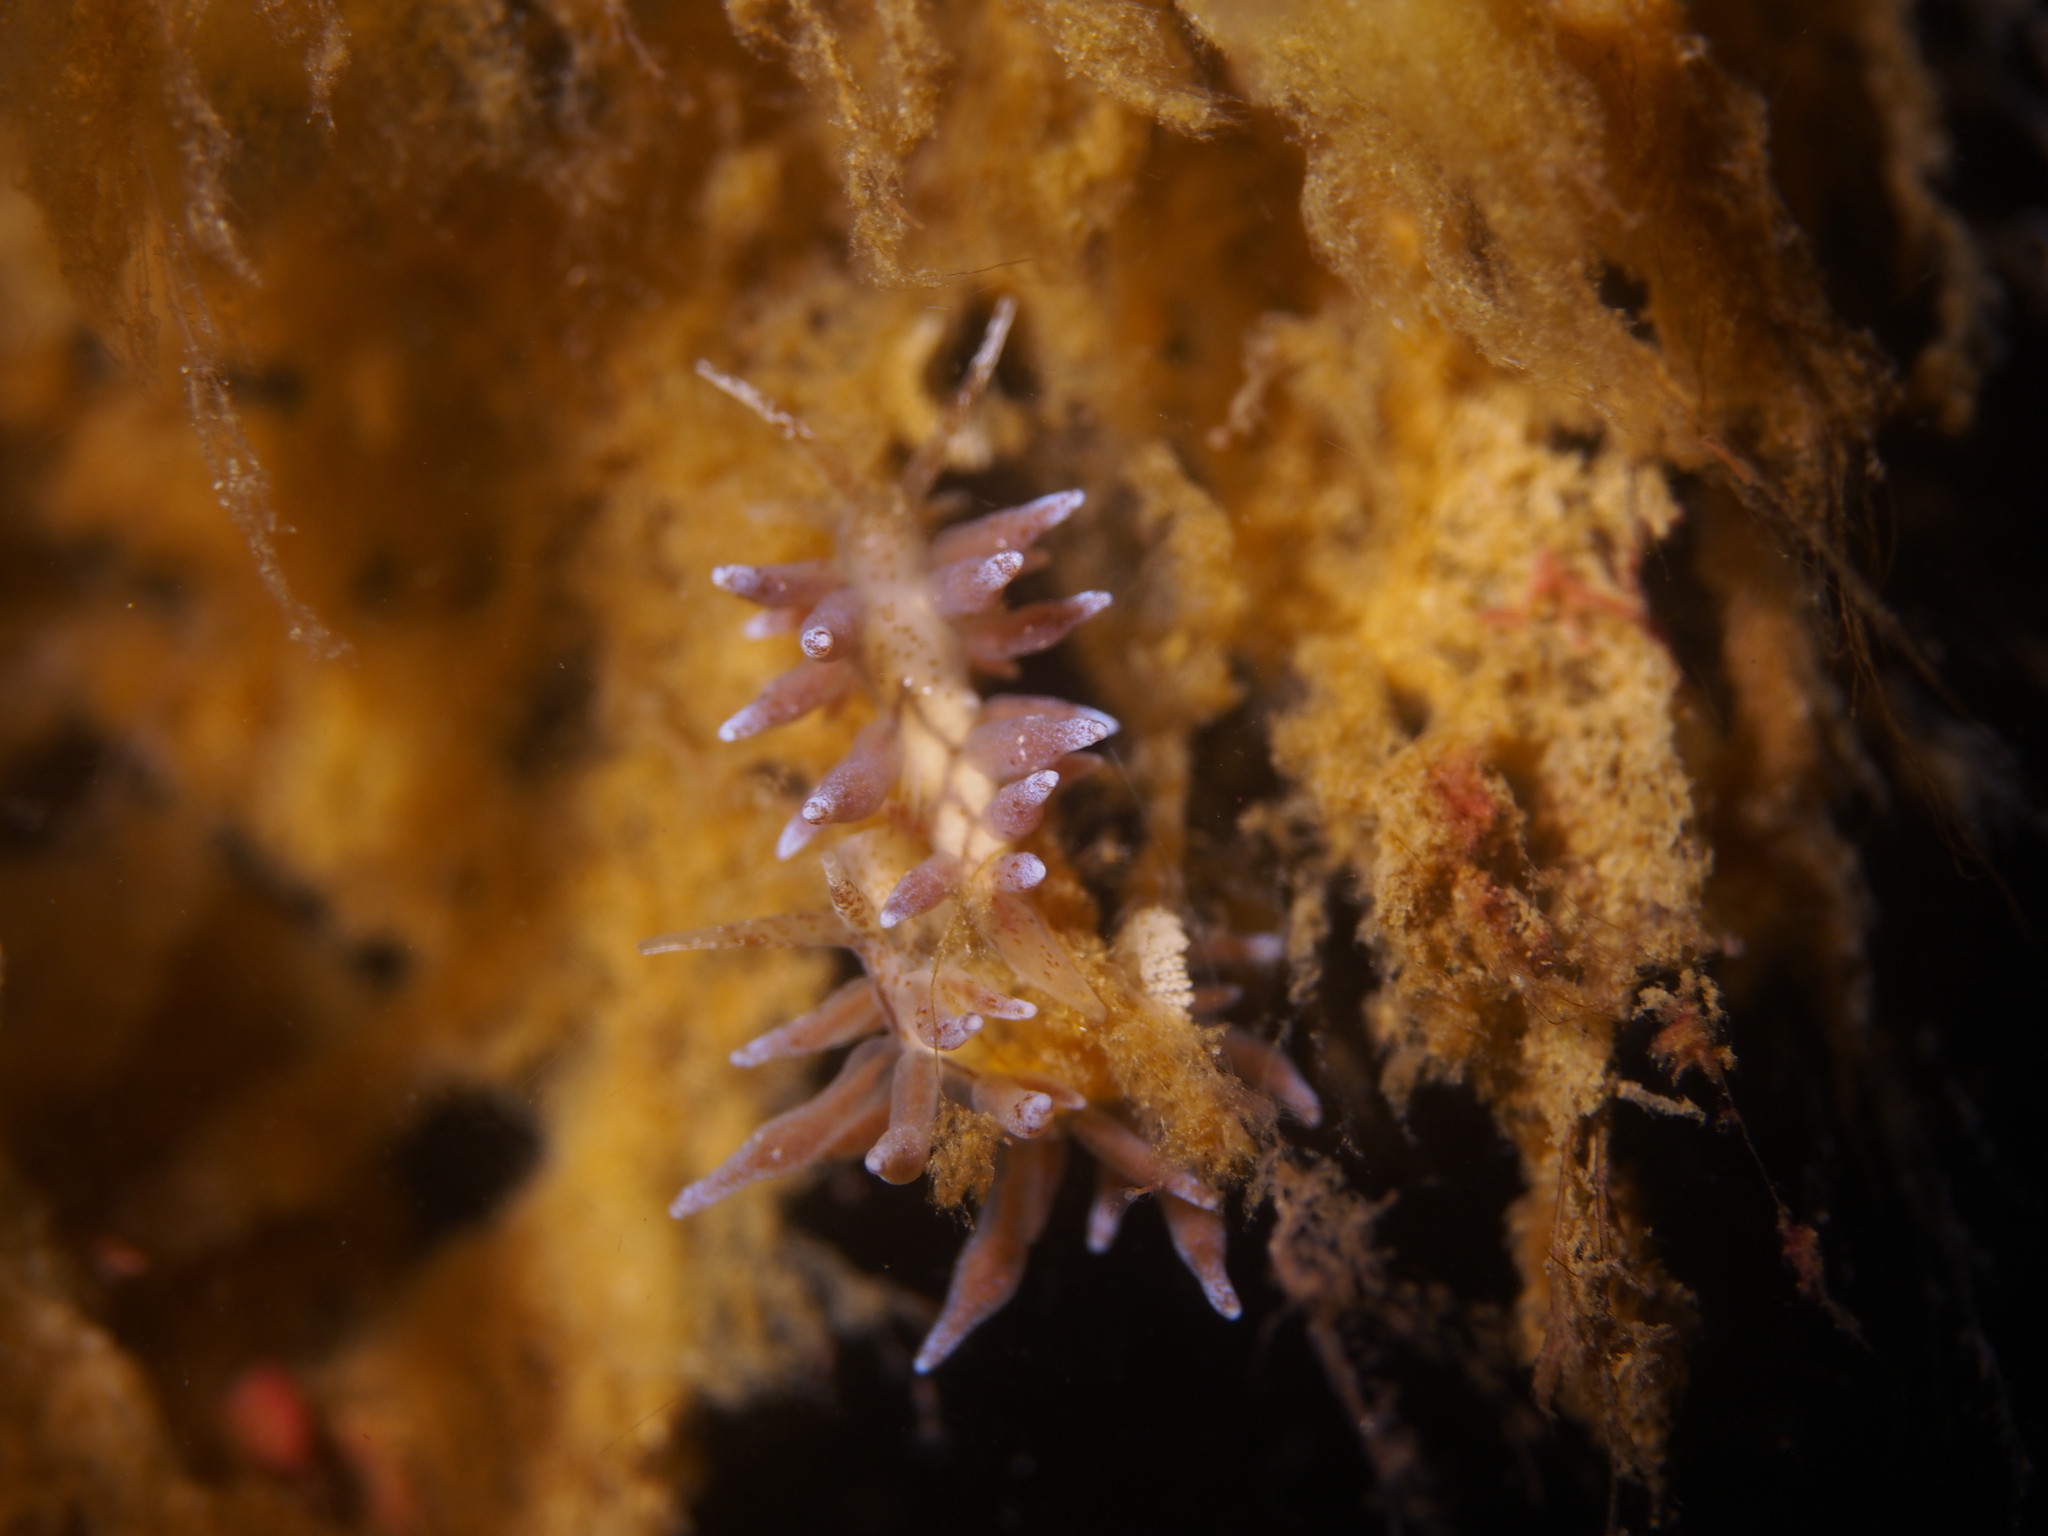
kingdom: Animalia
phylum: Mollusca
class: Gastropoda
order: Nudibranchia
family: Eubranchidae
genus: Eubranchus
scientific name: Eubranchus rupium
